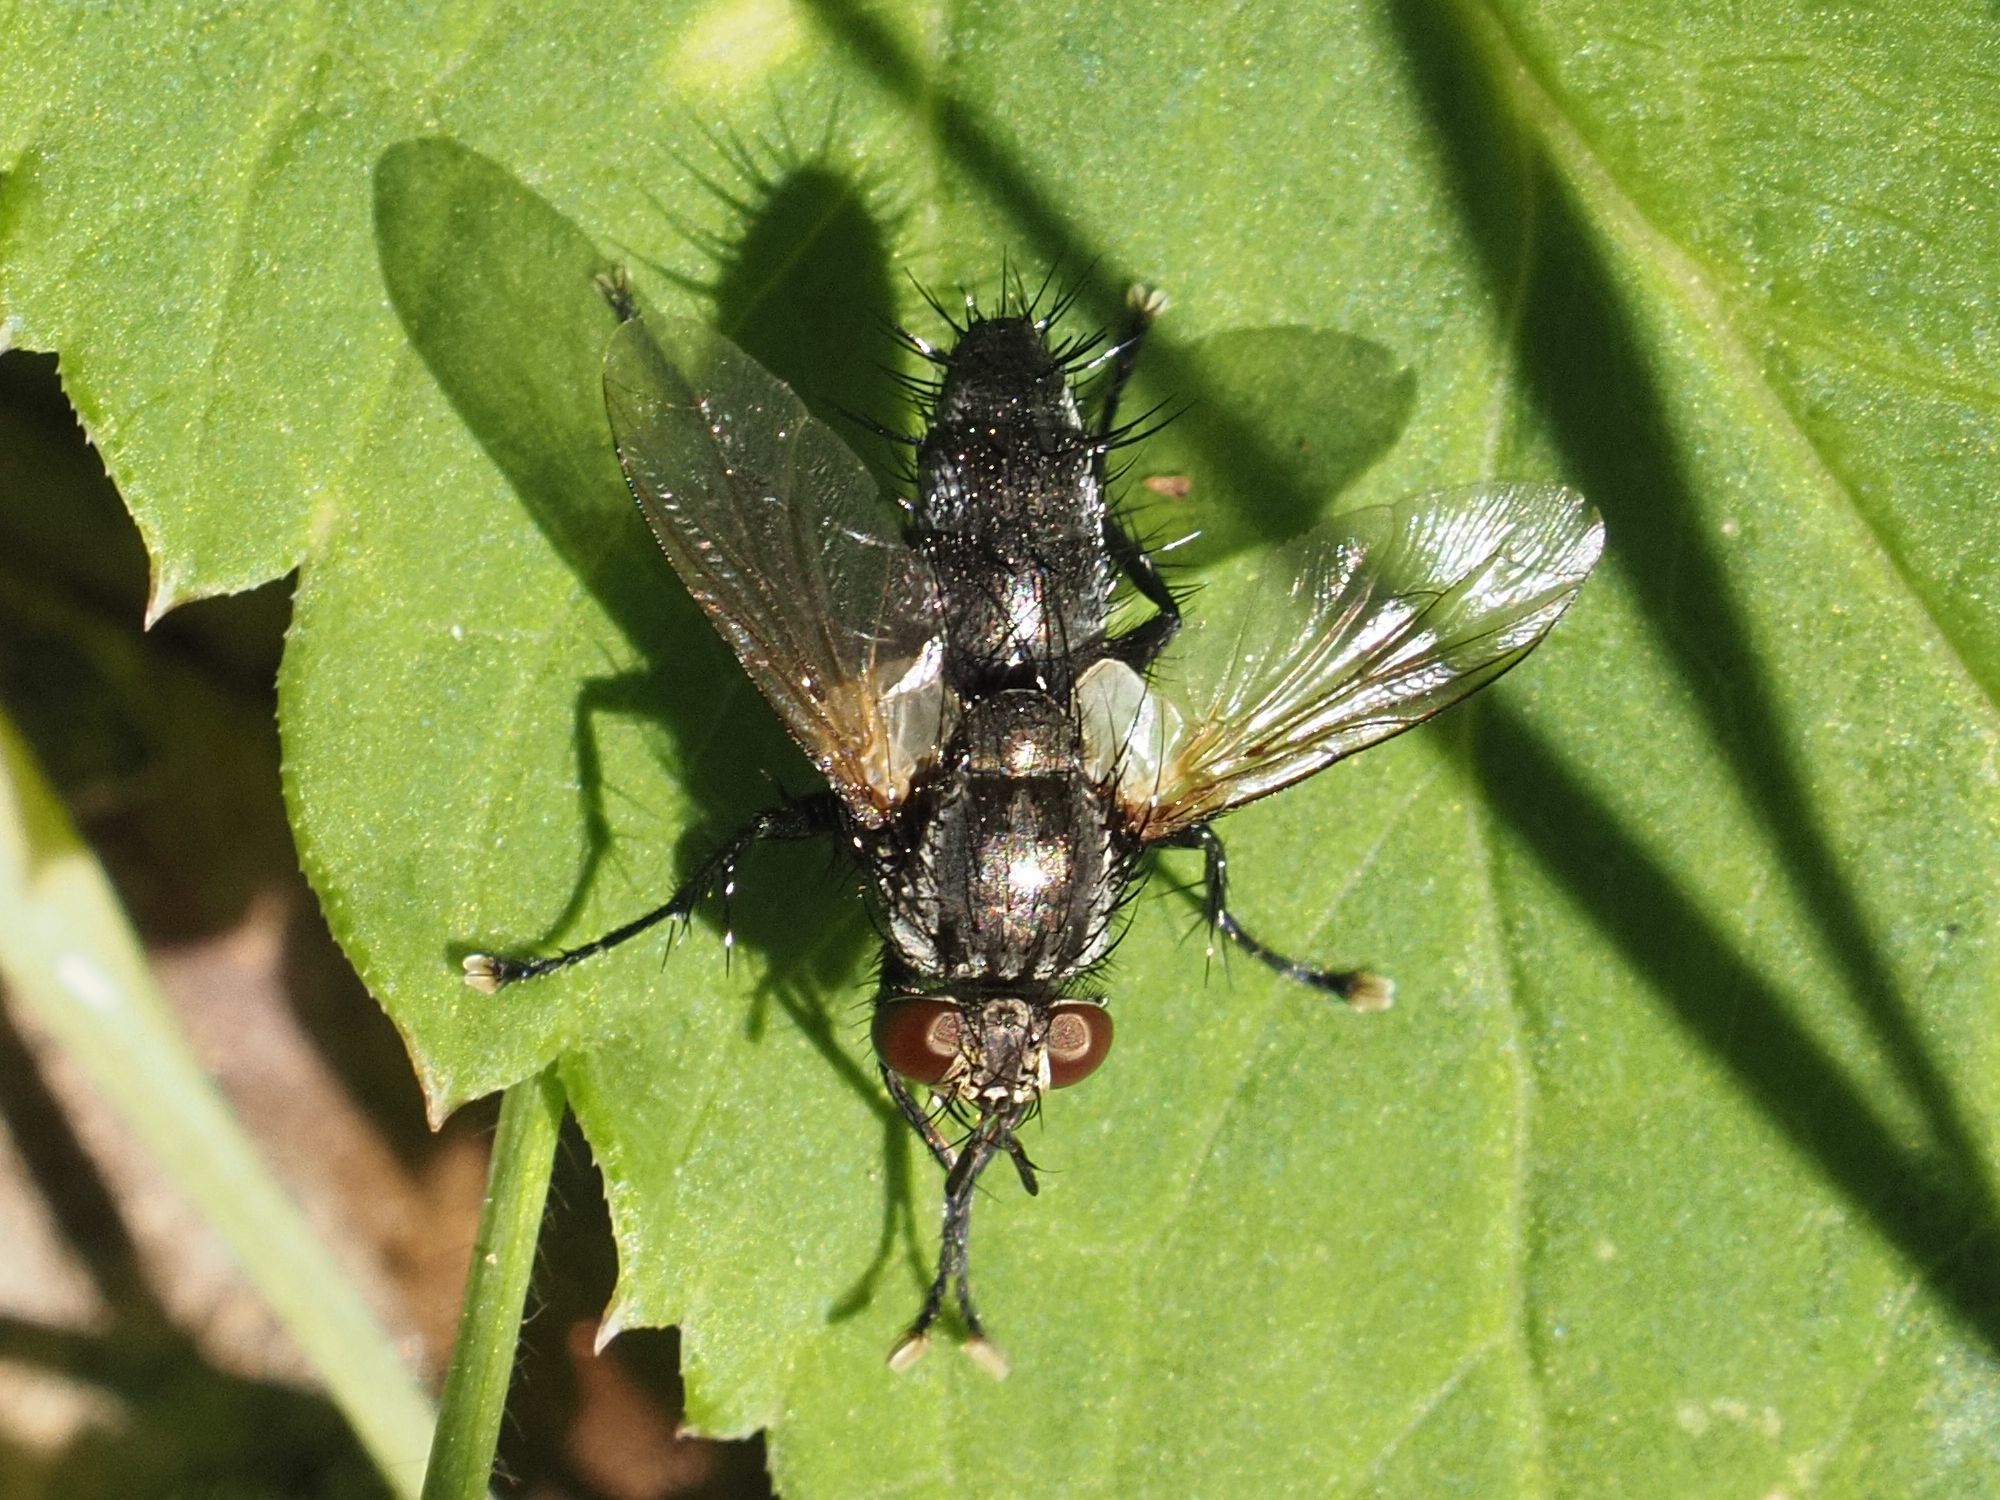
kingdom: Animalia
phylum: Arthropoda
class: Insecta
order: Diptera
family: Tachinidae
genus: Voria
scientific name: Voria ruralis
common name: Parasitic fly
